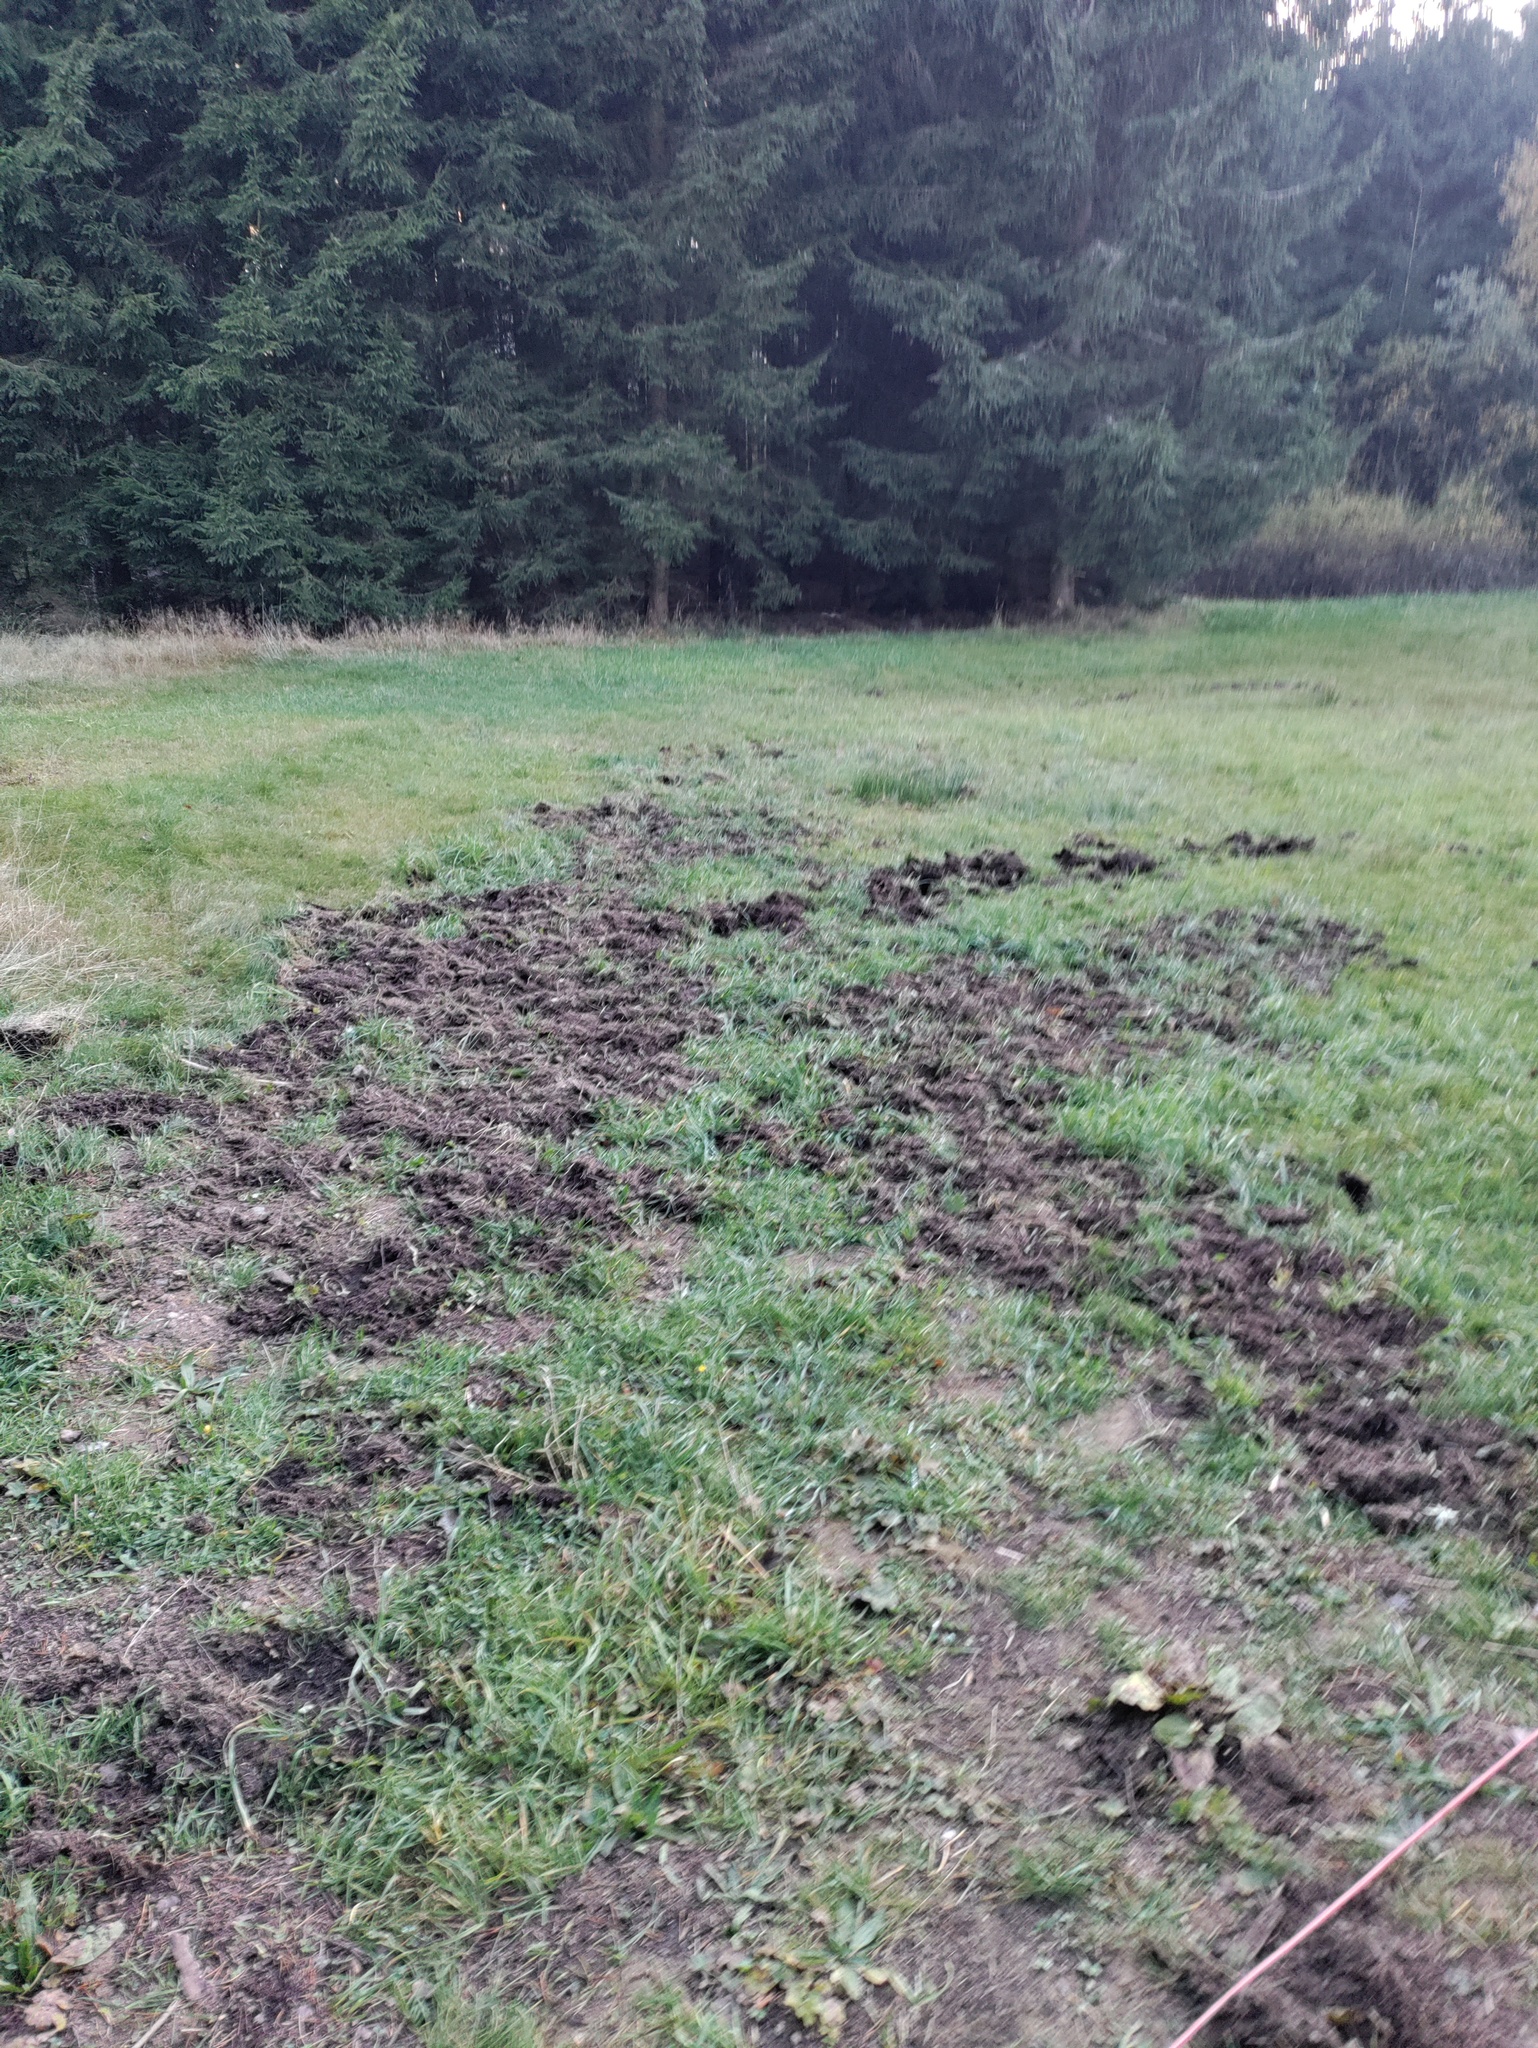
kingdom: Animalia
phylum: Chordata
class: Mammalia
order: Artiodactyla
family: Suidae
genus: Sus
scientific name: Sus scrofa
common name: Wild boar
